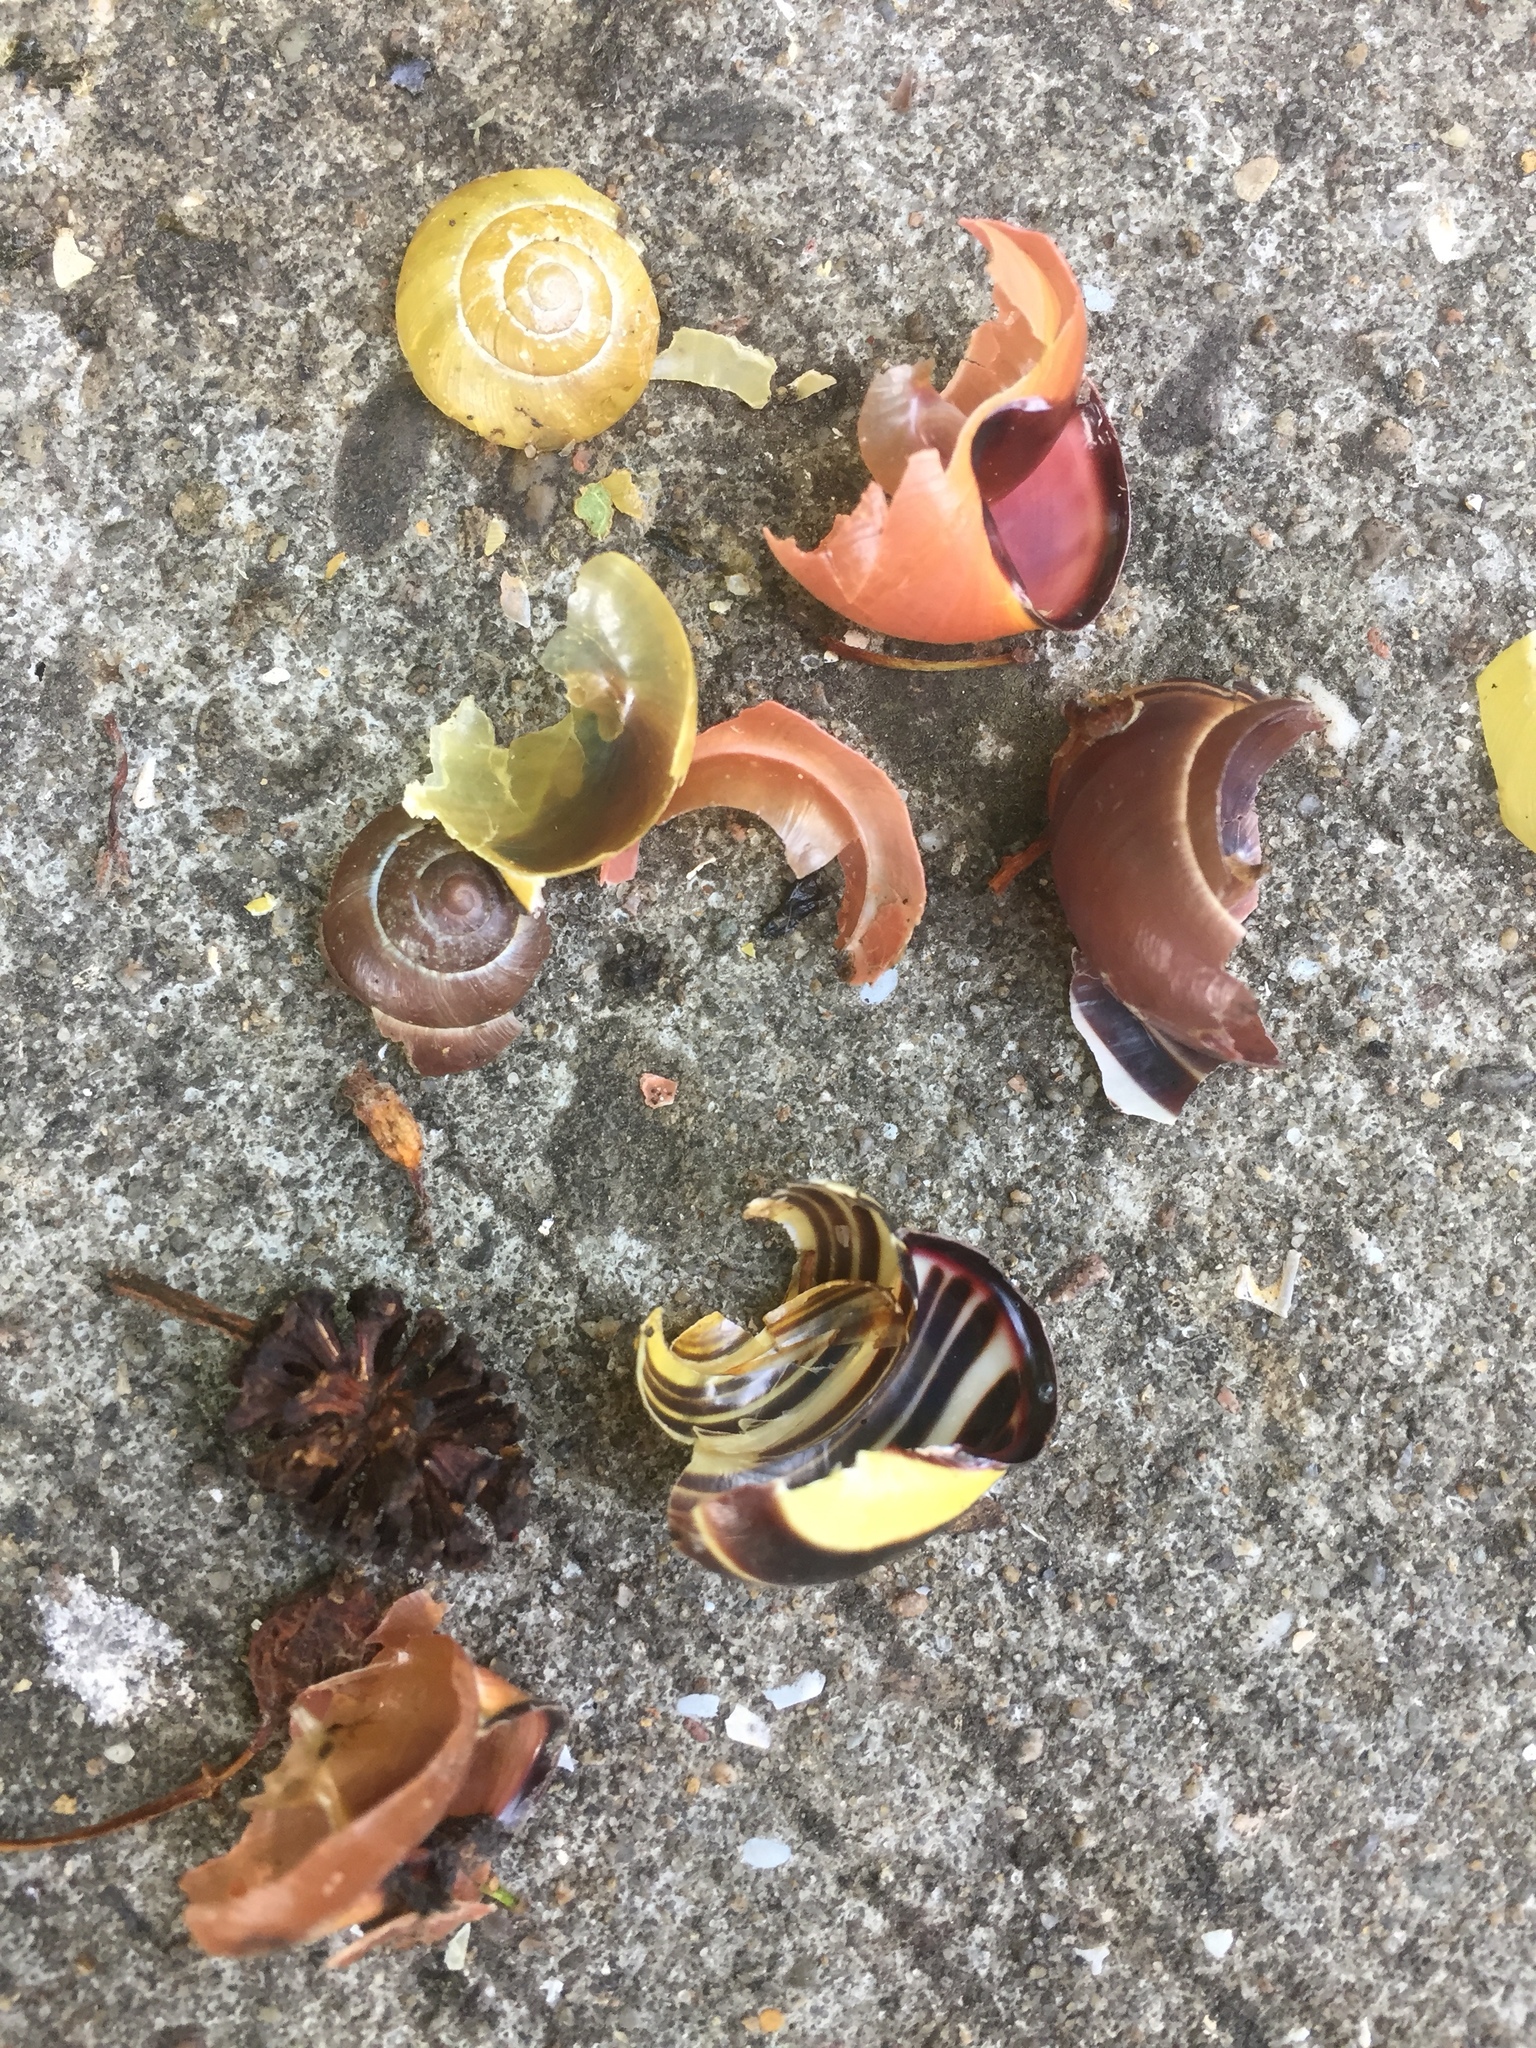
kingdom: Animalia
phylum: Mollusca
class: Gastropoda
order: Stylommatophora
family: Helicidae
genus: Cepaea
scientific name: Cepaea nemoralis
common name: Grovesnail
